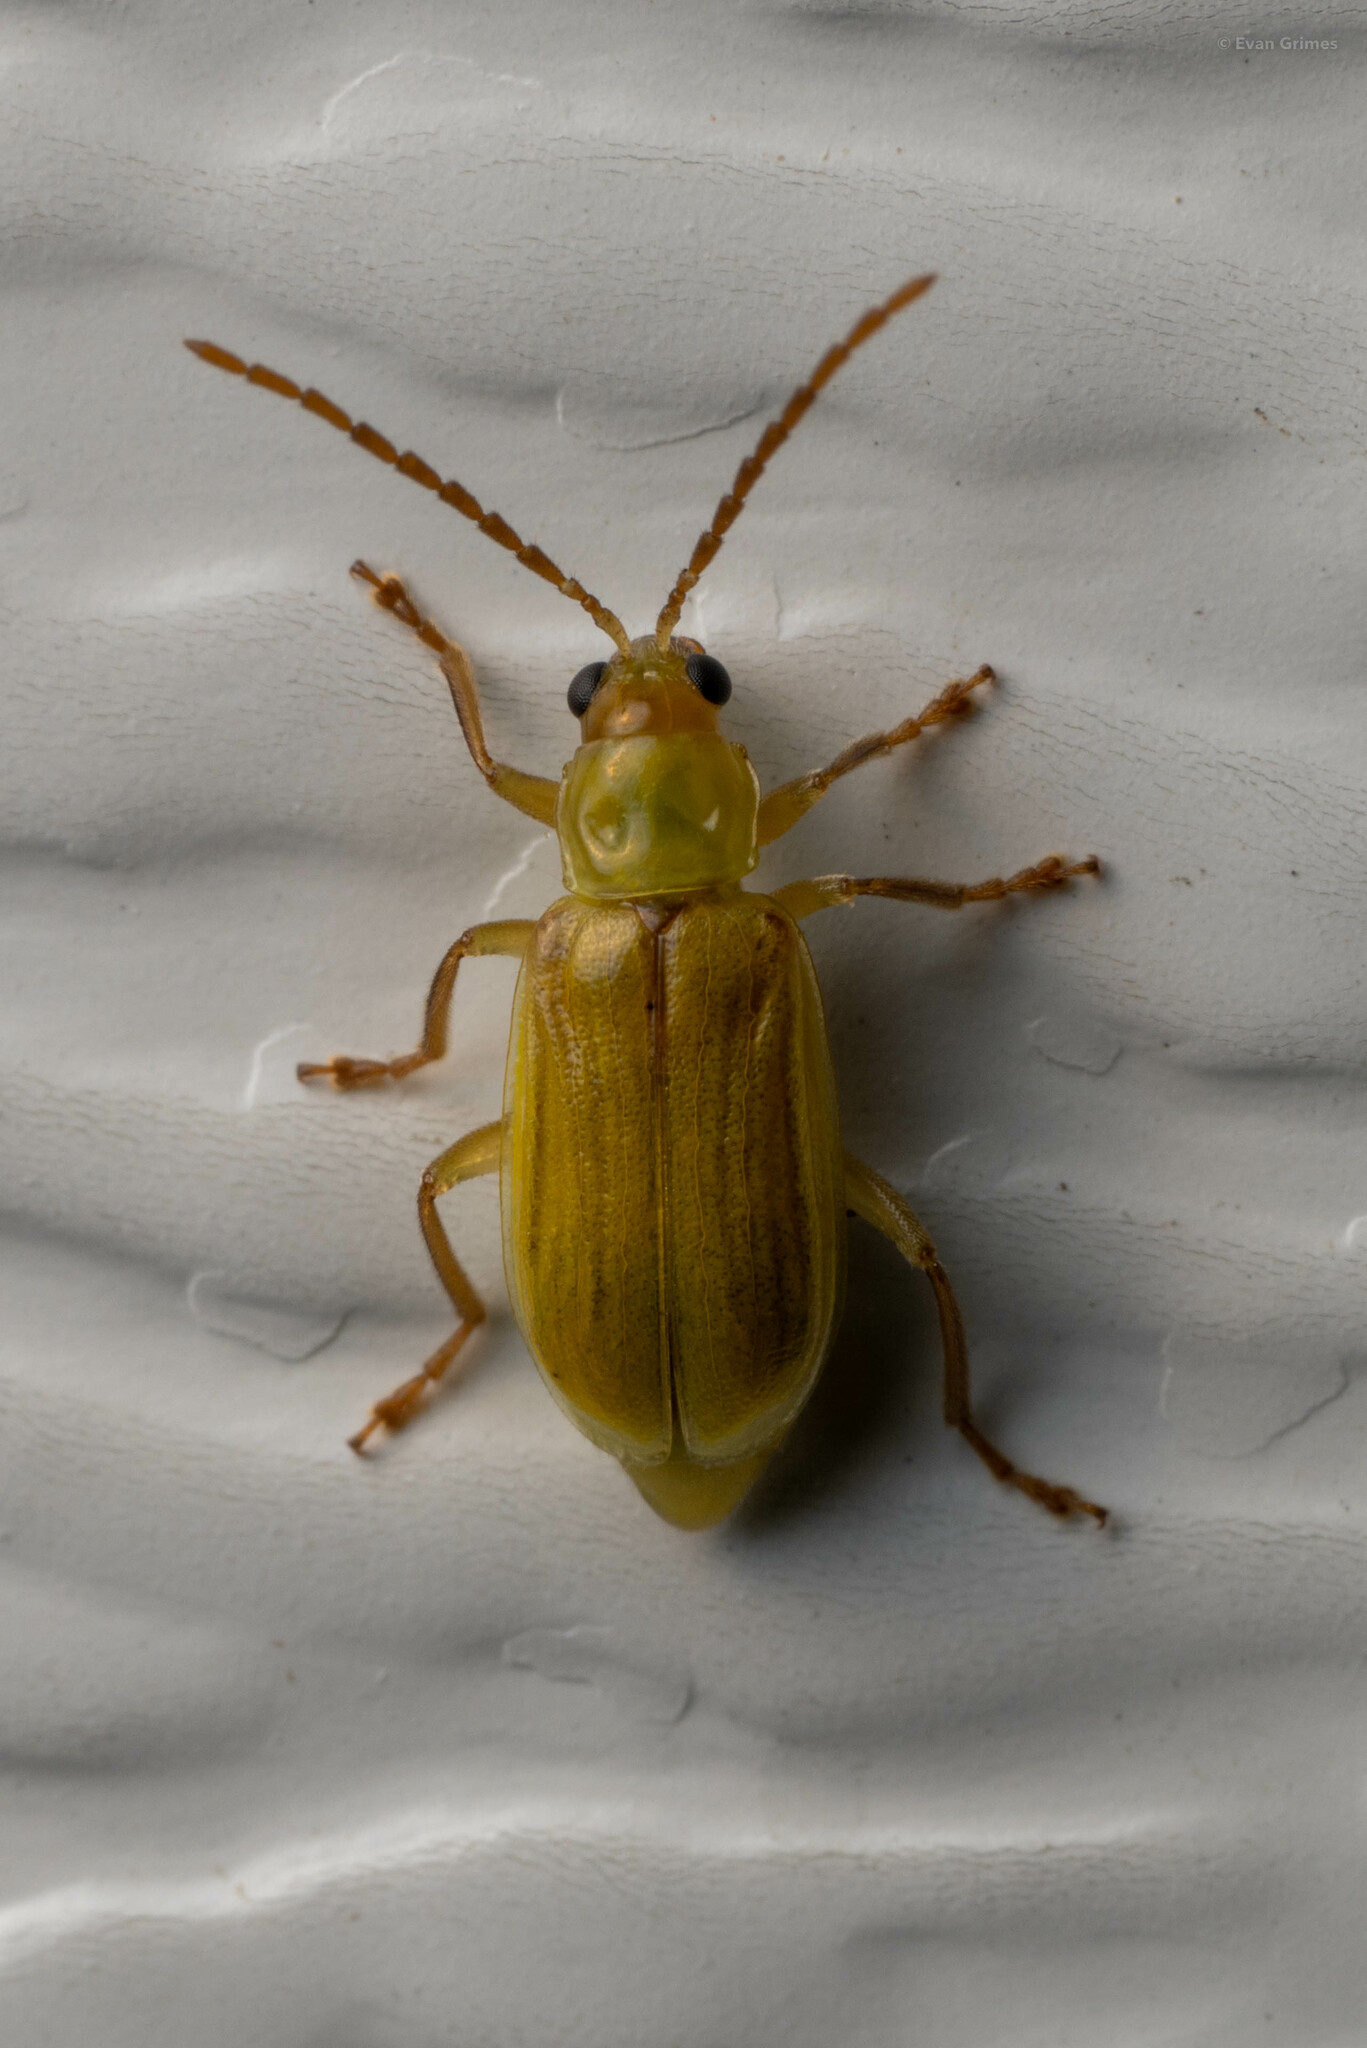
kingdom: Animalia
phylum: Arthropoda
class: Insecta
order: Coleoptera
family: Chrysomelidae
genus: Diabrotica
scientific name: Diabrotica barberi
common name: Northern corn rootworm
